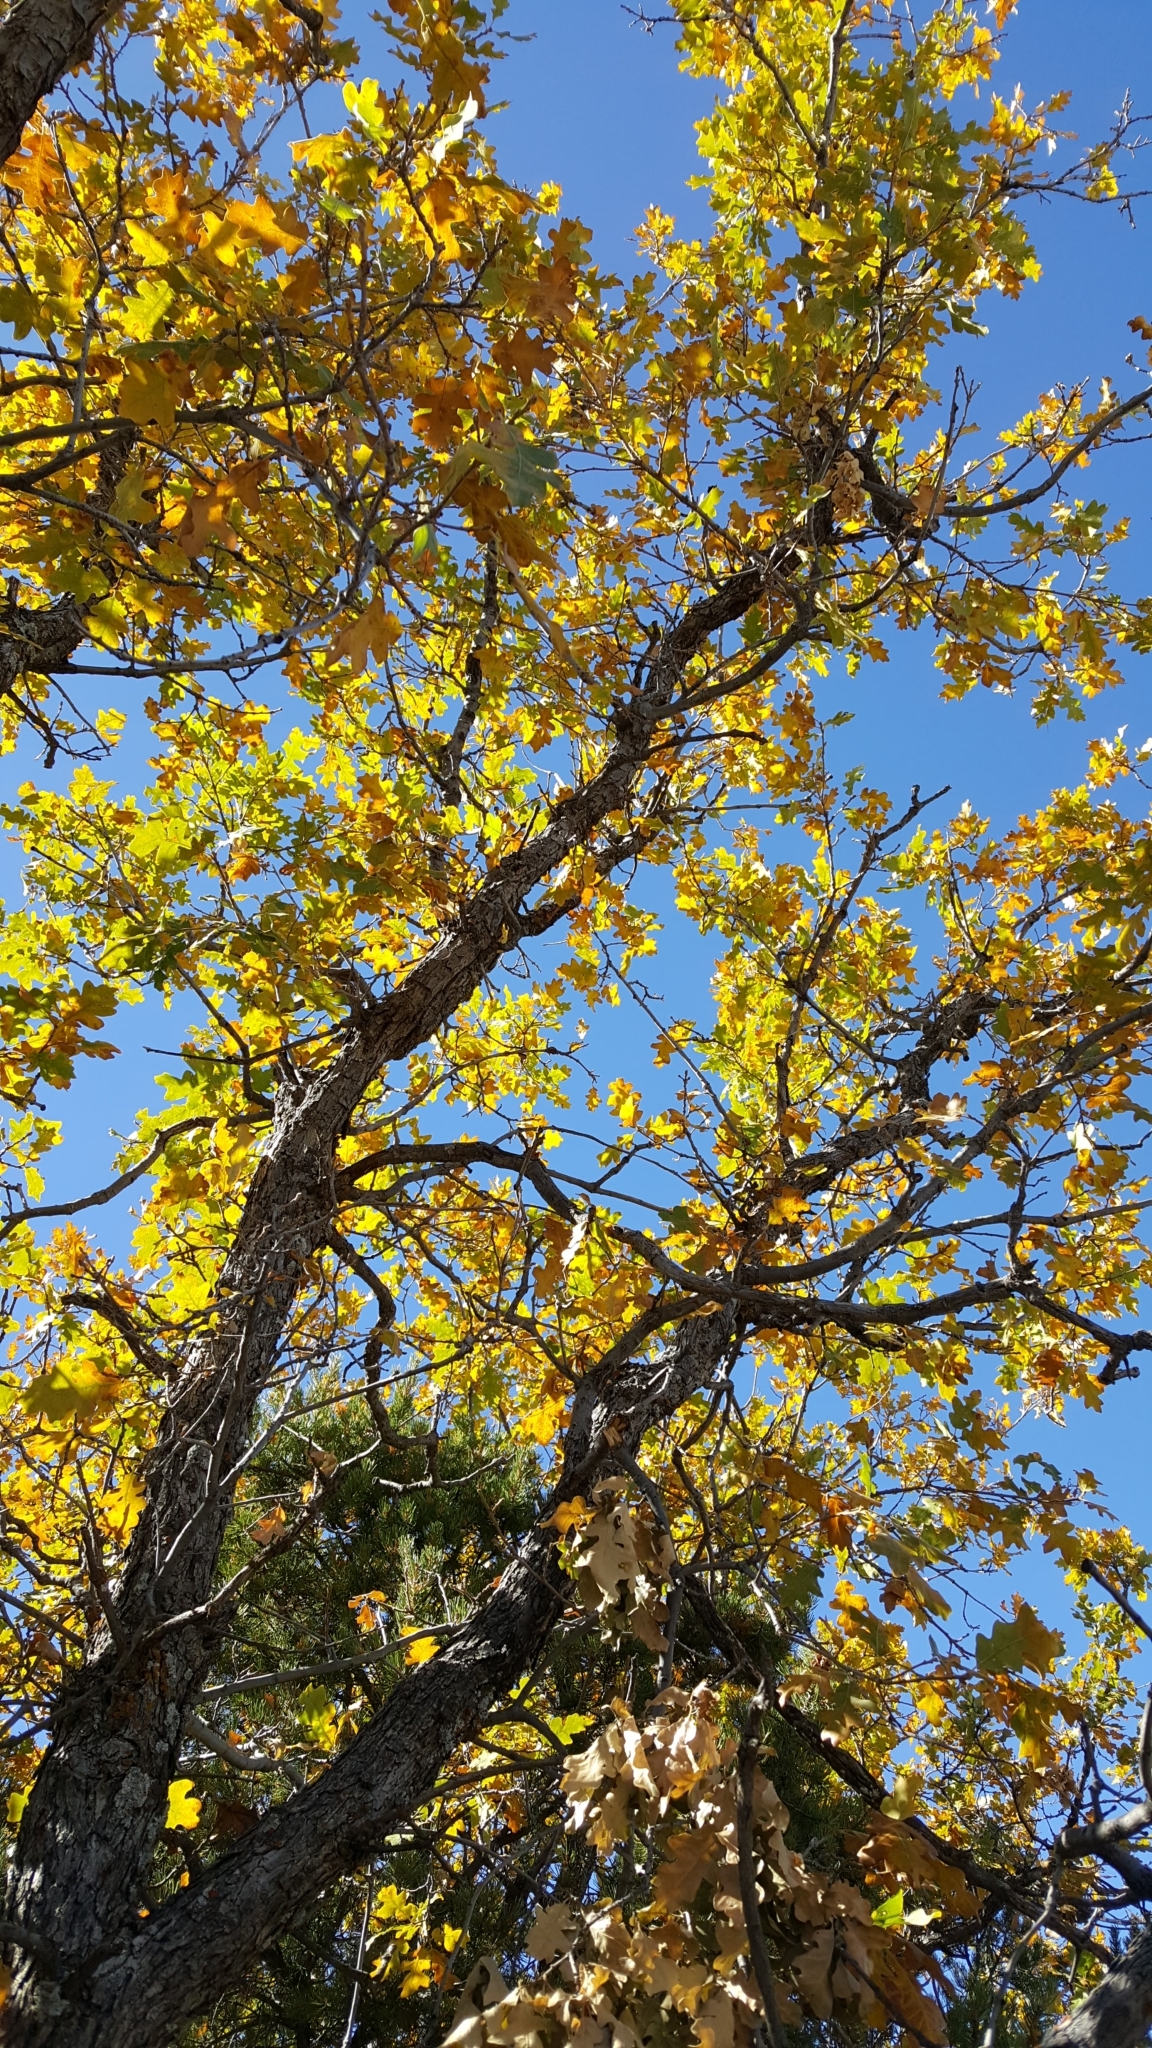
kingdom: Plantae
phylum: Tracheophyta
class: Magnoliopsida
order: Fagales
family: Fagaceae
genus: Quercus
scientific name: Quercus gambelii
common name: Gambel oak
